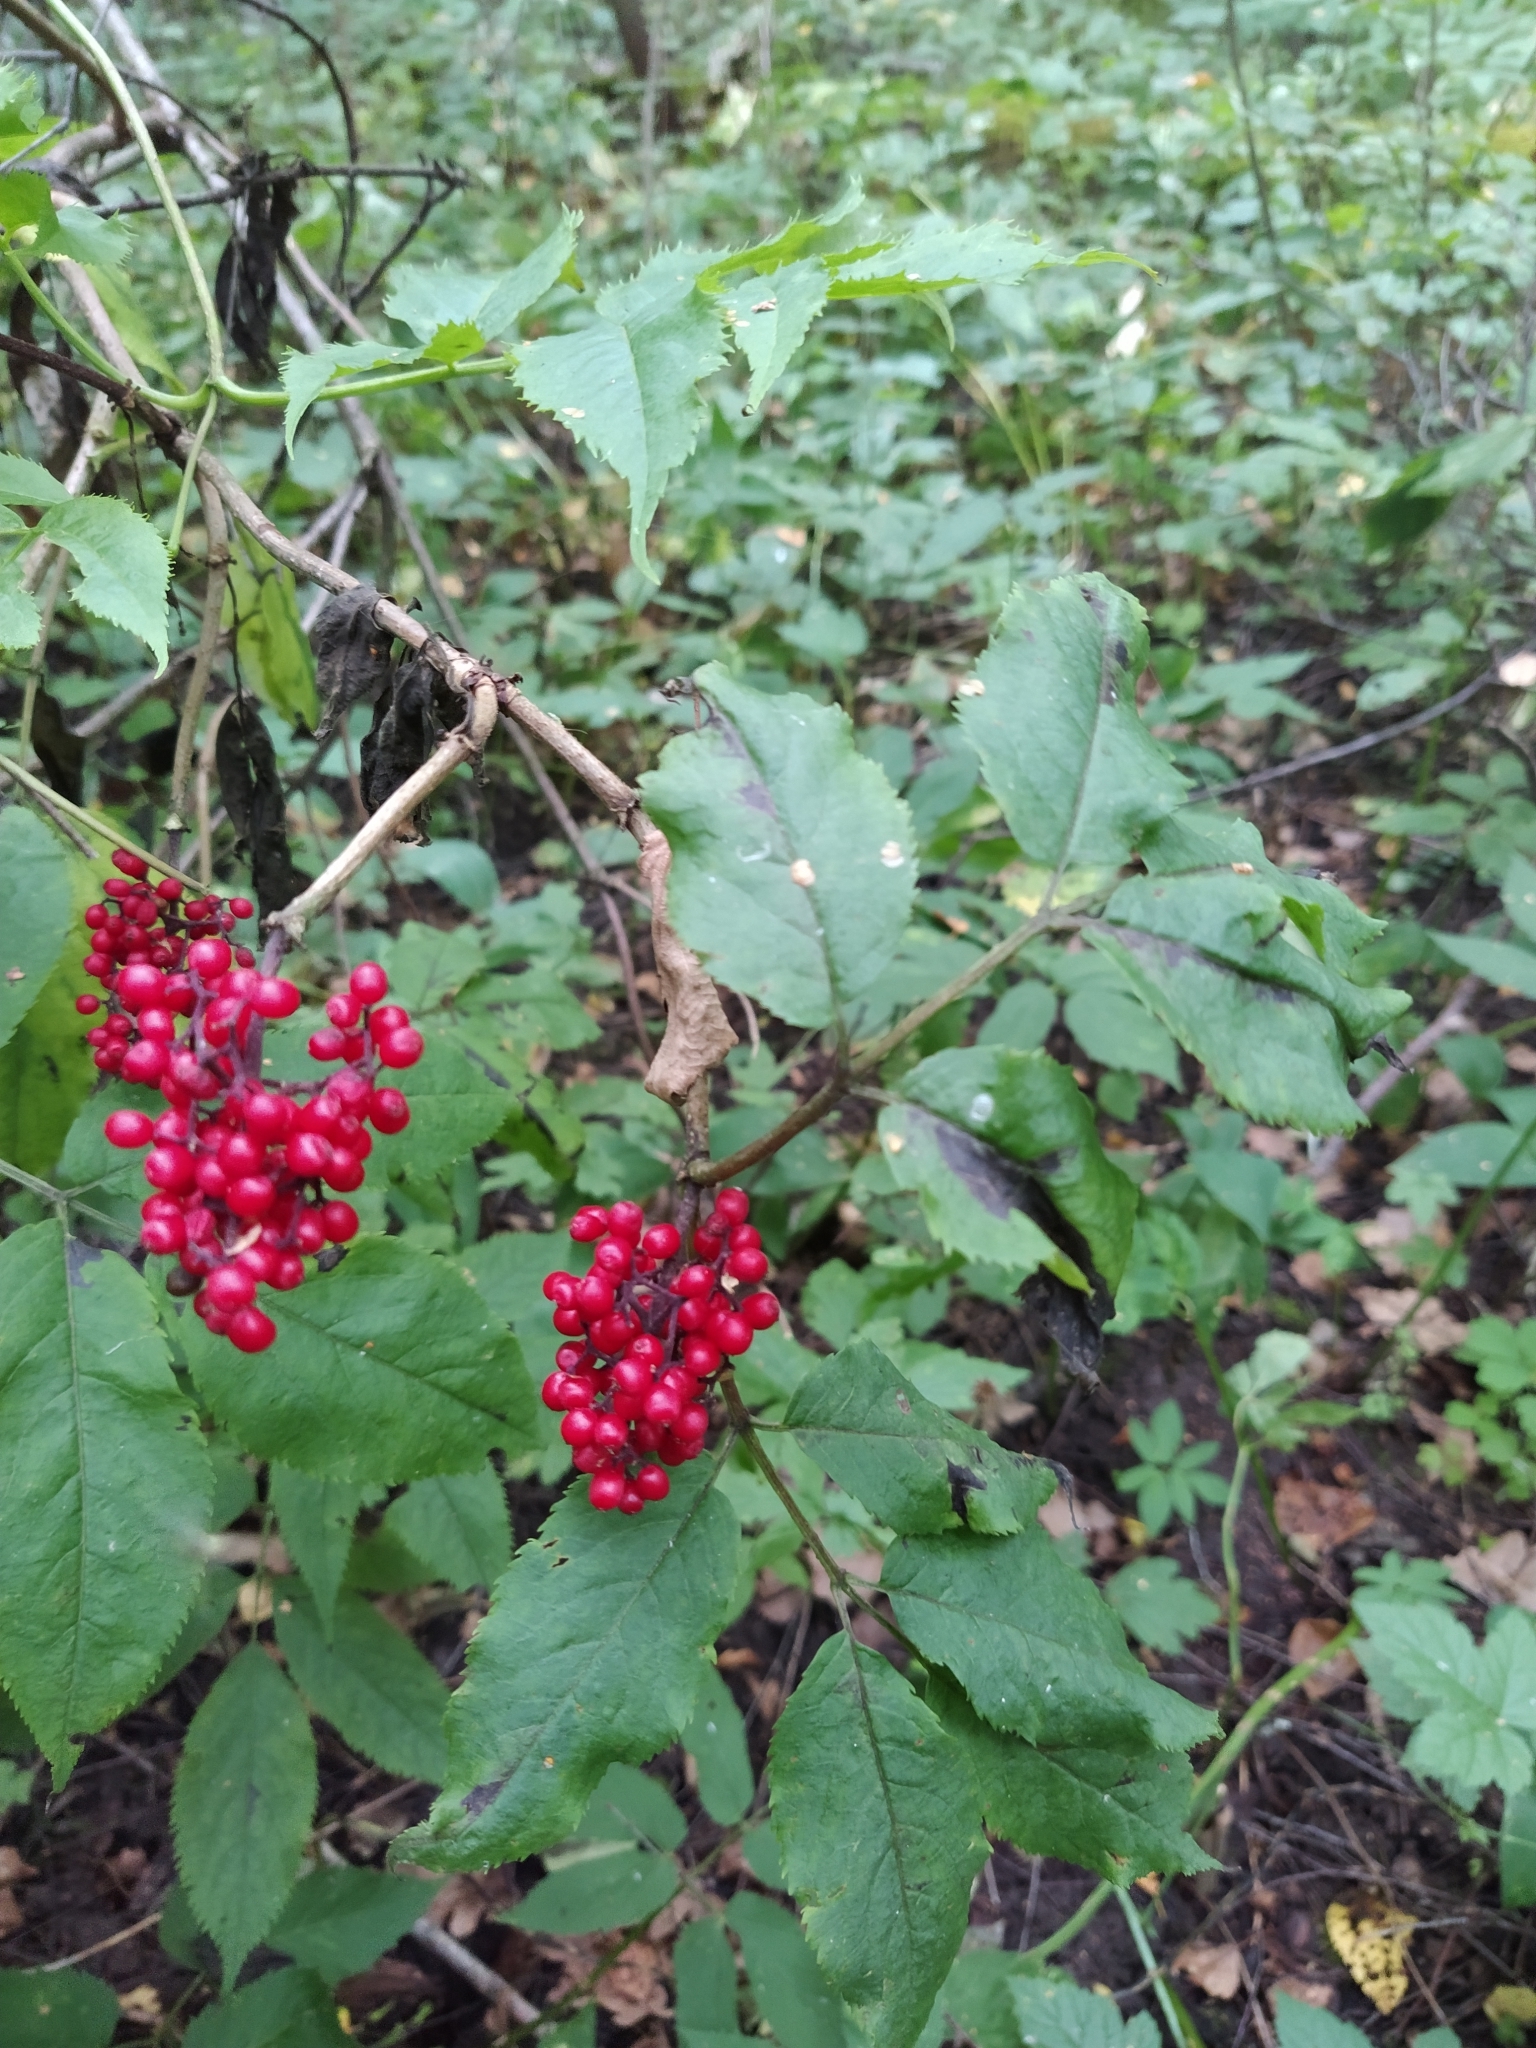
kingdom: Plantae
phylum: Tracheophyta
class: Magnoliopsida
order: Dipsacales
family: Viburnaceae
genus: Sambucus
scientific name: Sambucus racemosa
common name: Red-berried elder
